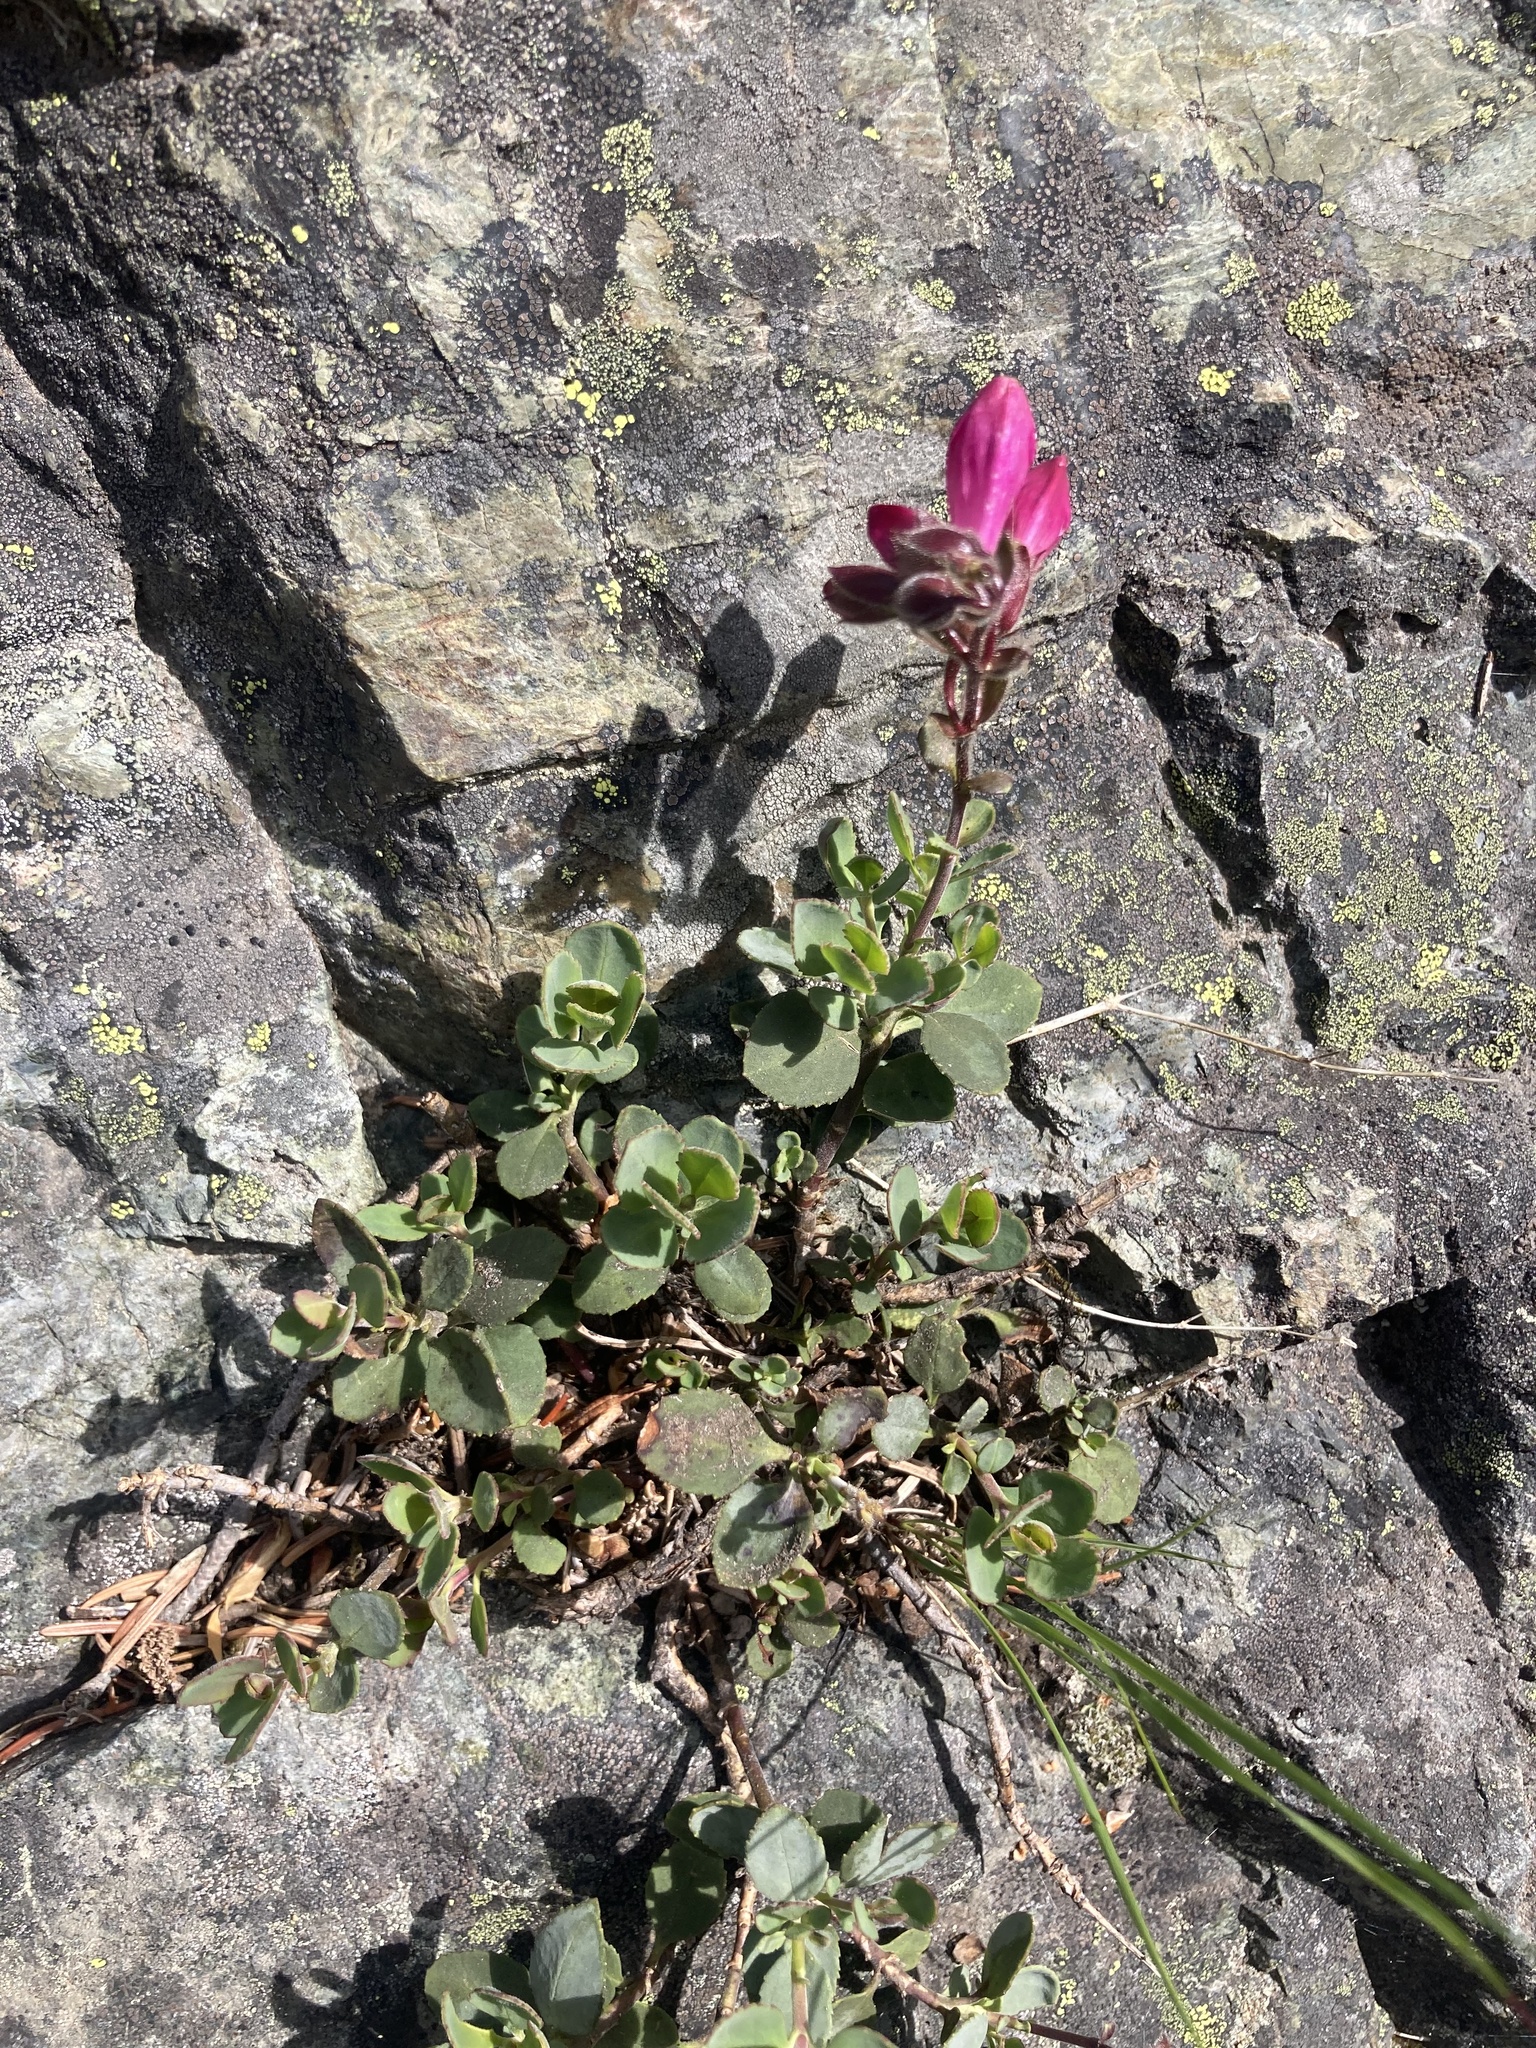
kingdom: Plantae
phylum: Tracheophyta
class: Magnoliopsida
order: Lamiales
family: Plantaginaceae
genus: Penstemon
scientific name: Penstemon rupicola
